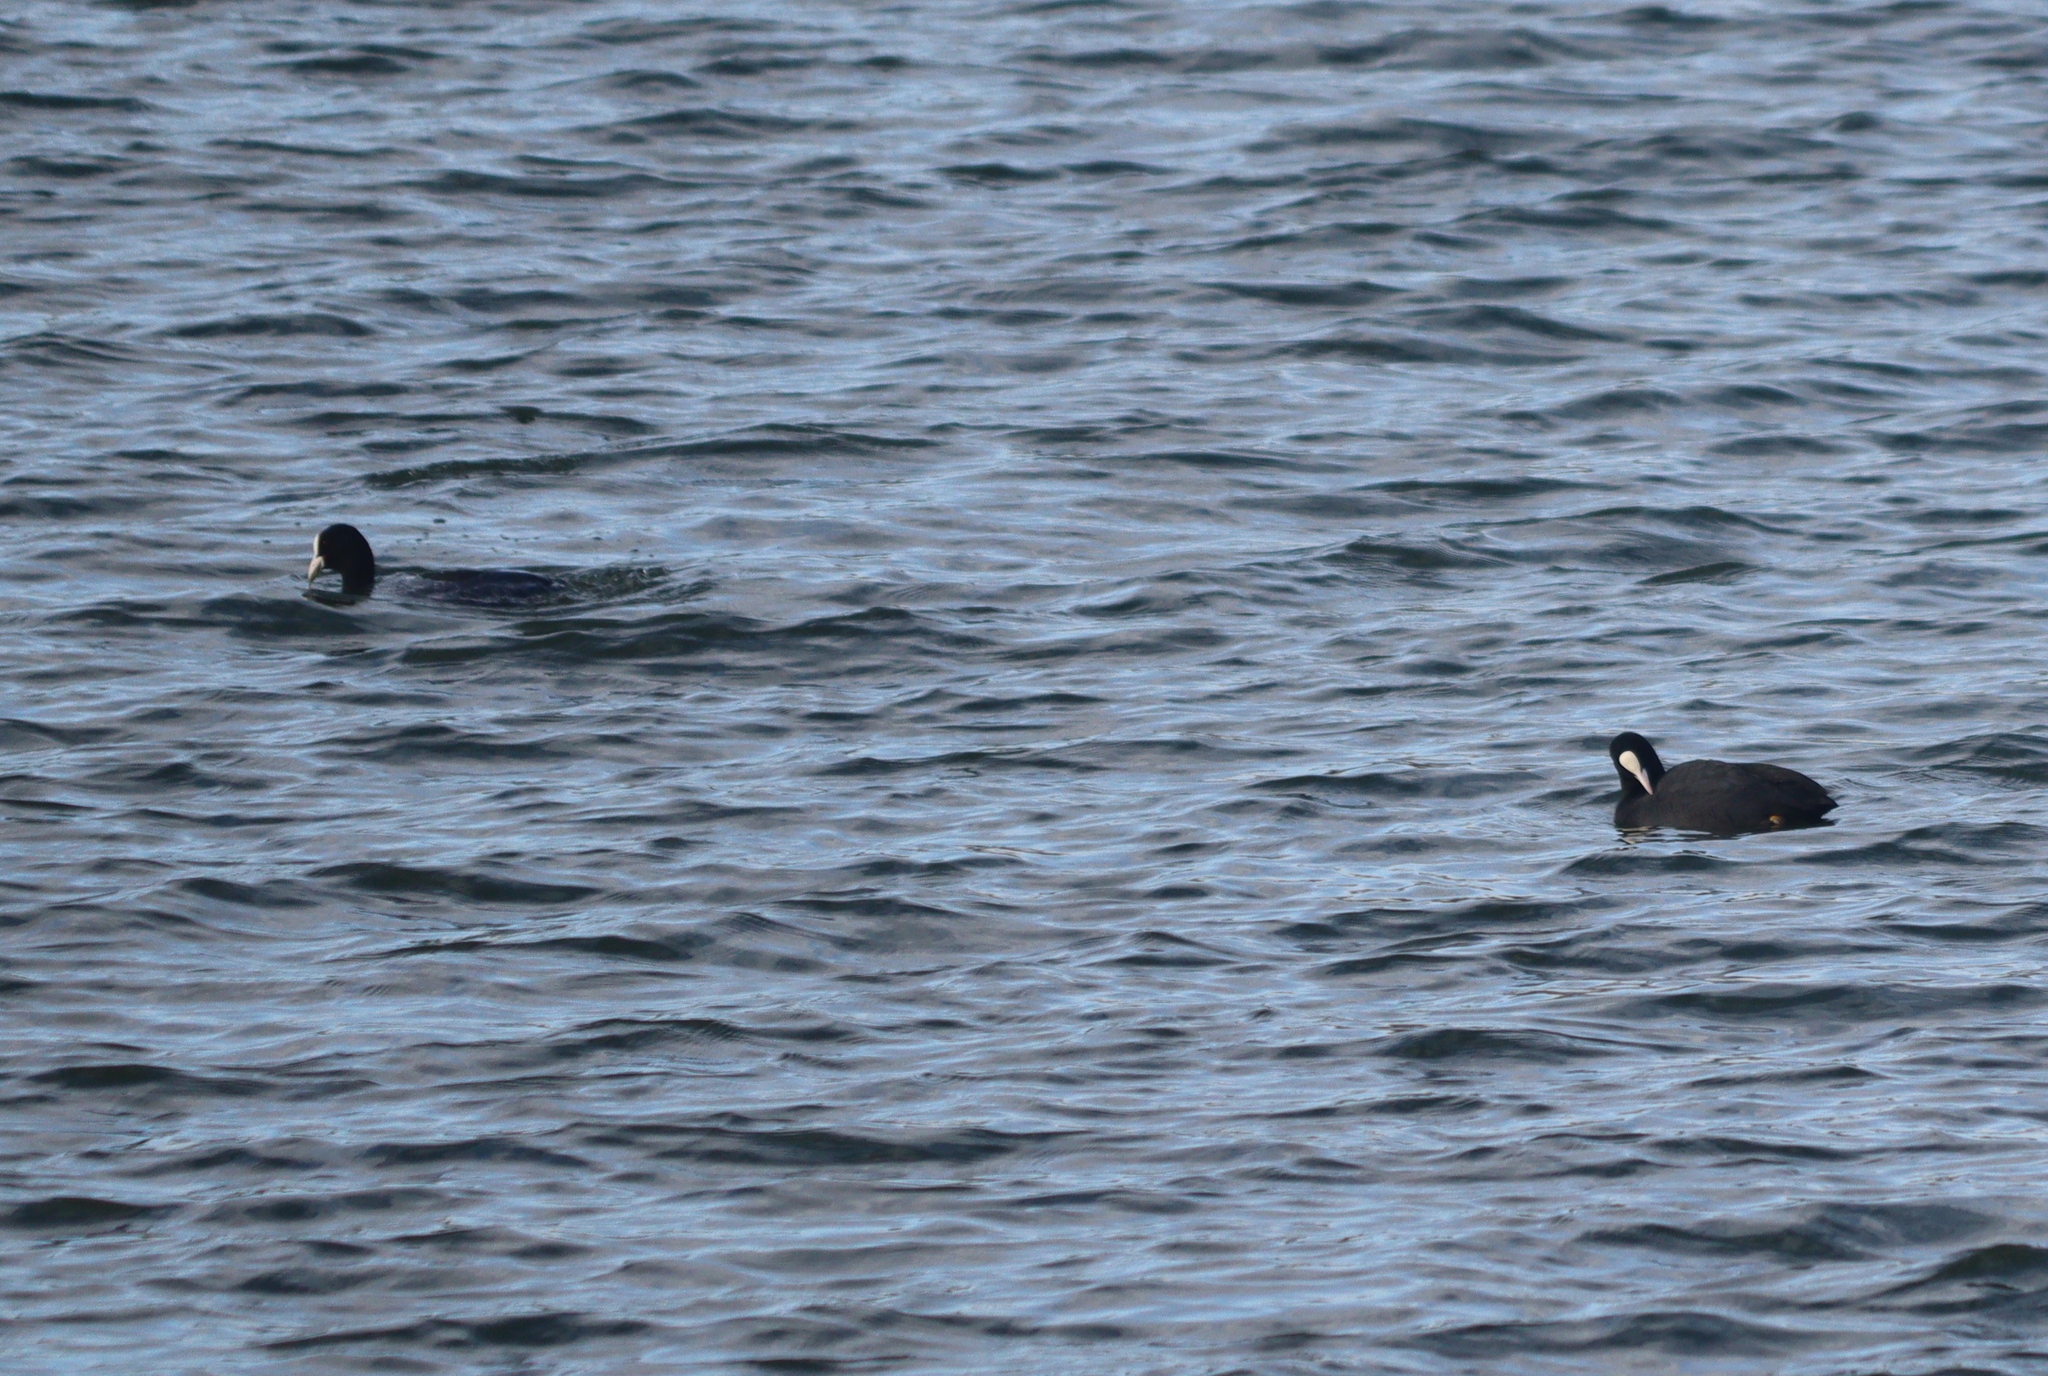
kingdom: Animalia
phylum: Chordata
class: Aves
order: Gruiformes
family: Rallidae
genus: Fulica
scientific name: Fulica atra
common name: Eurasian coot
